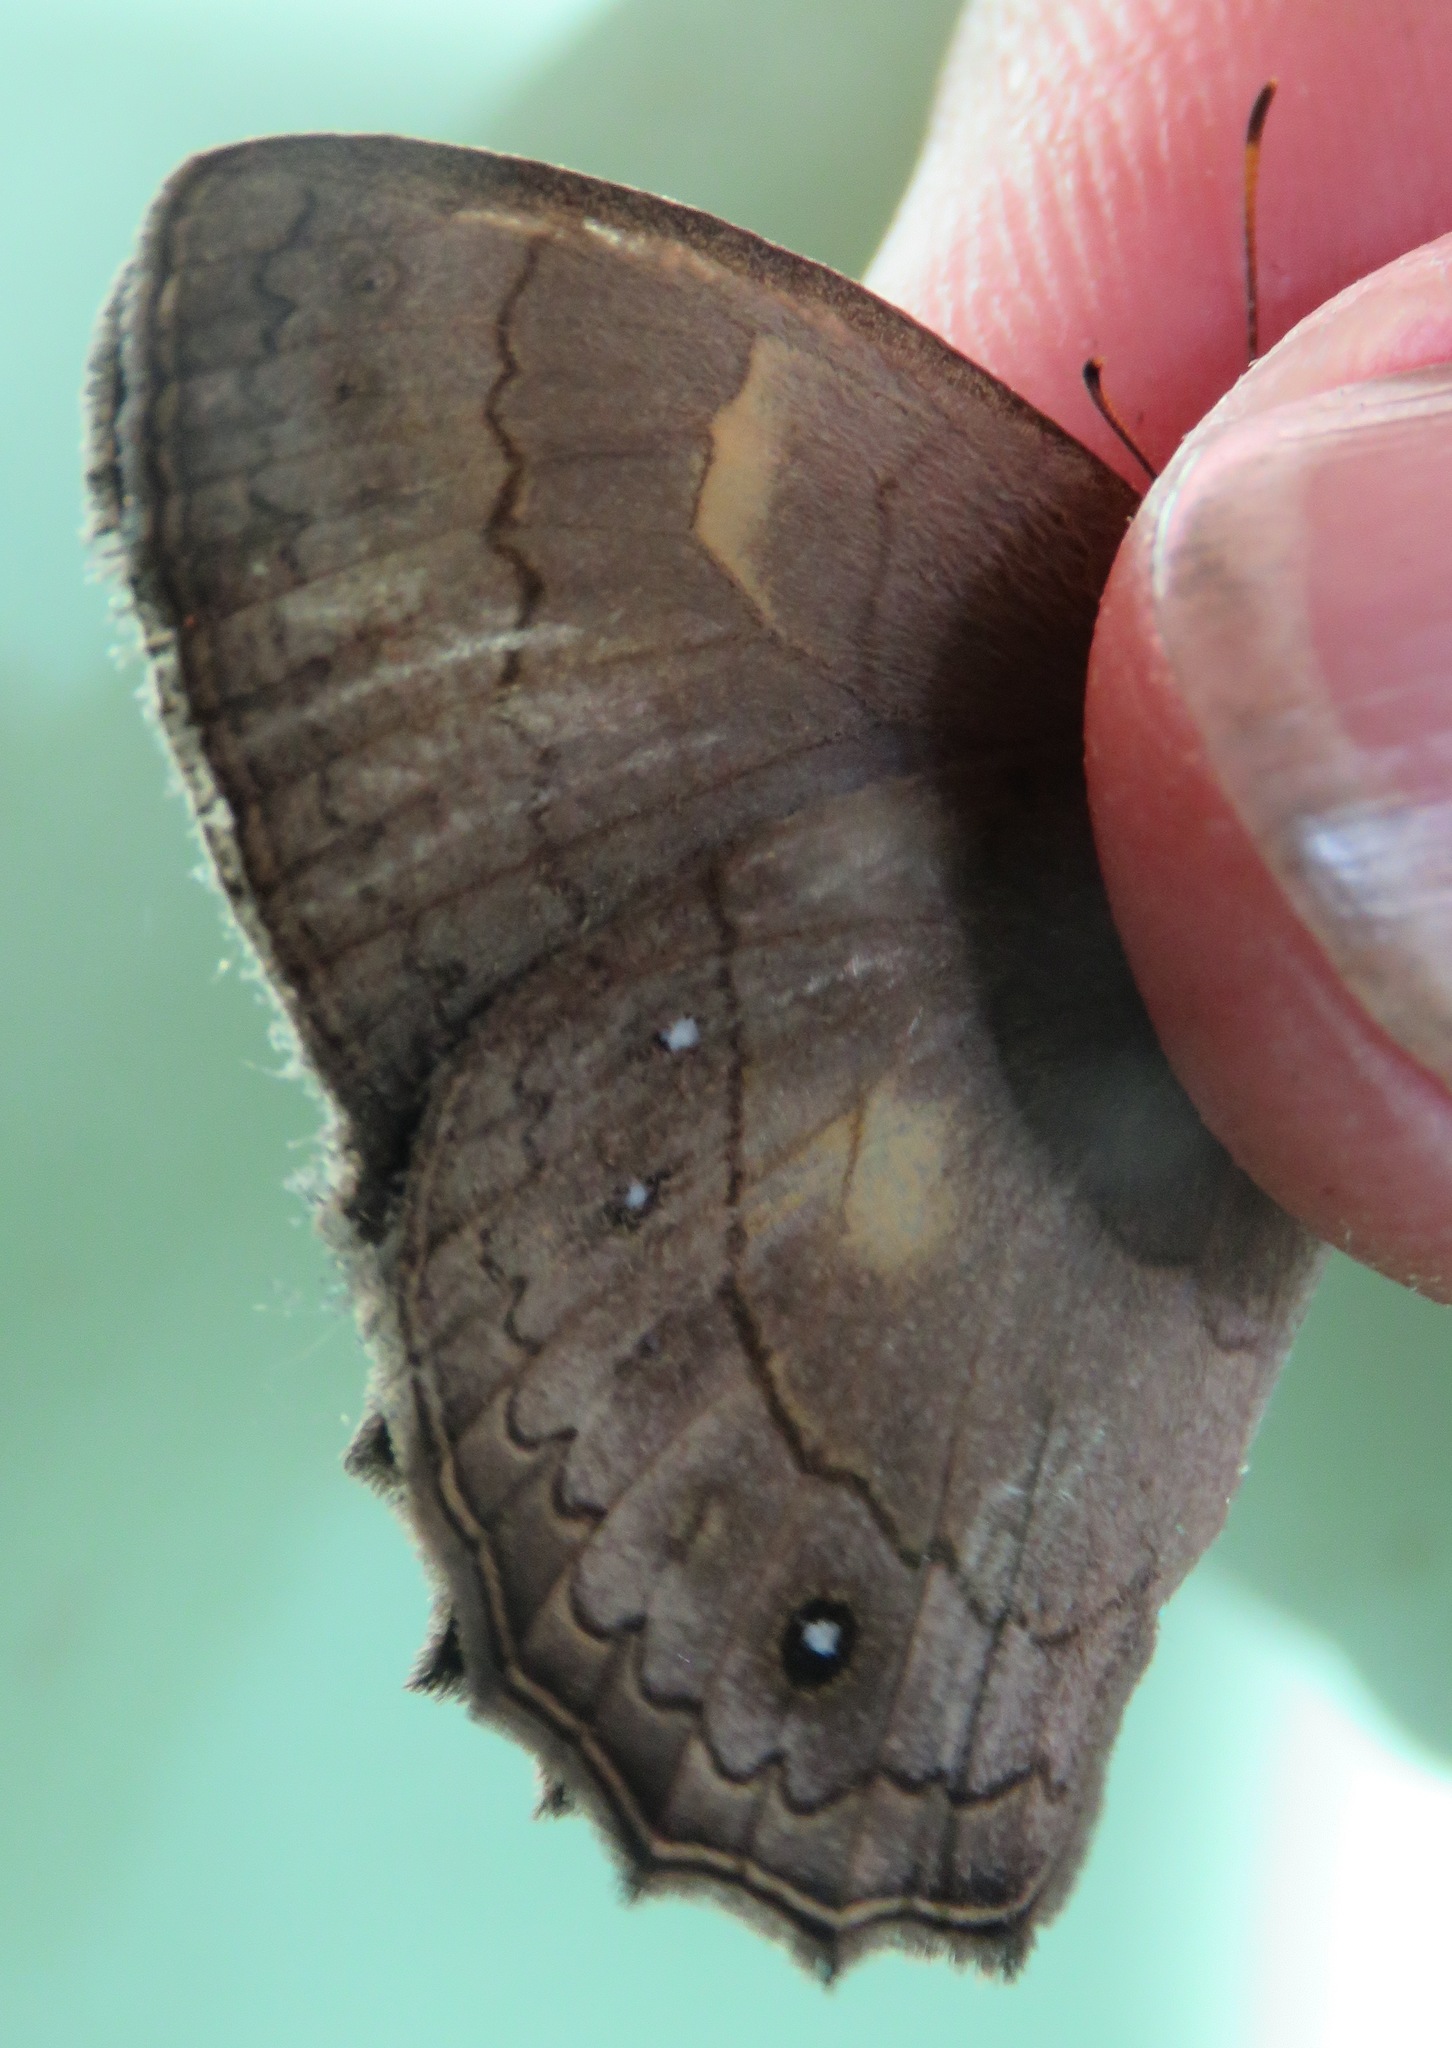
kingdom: Animalia
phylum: Arthropoda
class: Insecta
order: Lepidoptera
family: Nymphalidae
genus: Taygetina
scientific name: Taygetina kerea
